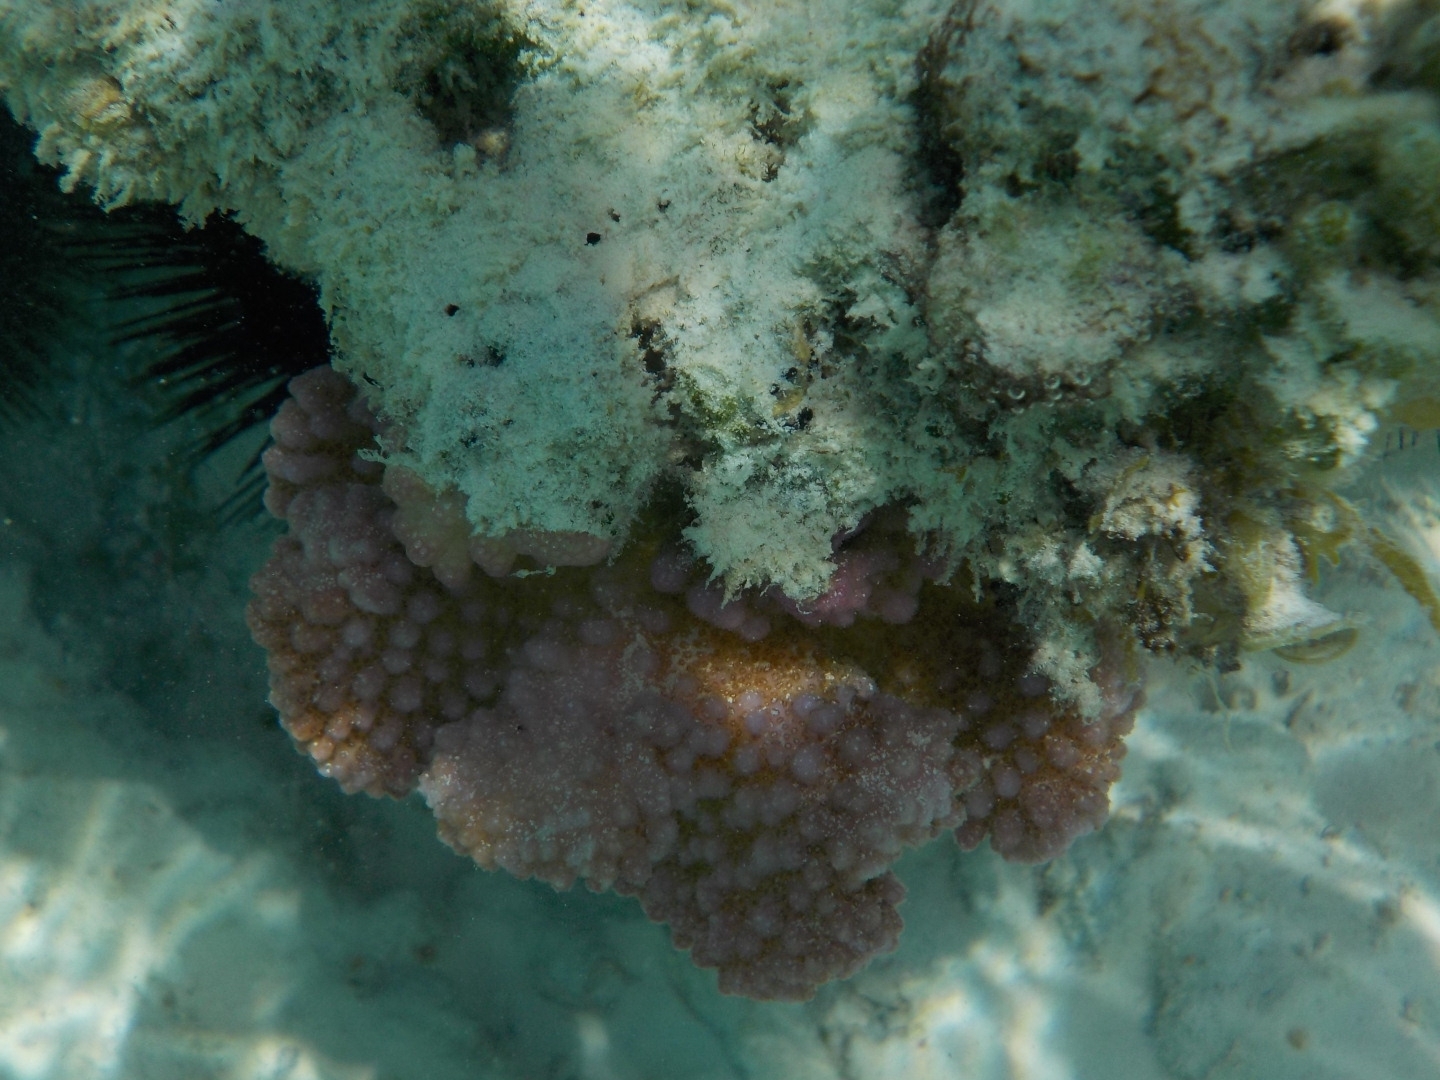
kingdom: Animalia
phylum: Cnidaria
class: Anthozoa
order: Scleractinia
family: Pocilloporidae
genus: Pocillopora
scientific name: Pocillopora verrucosa
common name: Cauliflower coral
